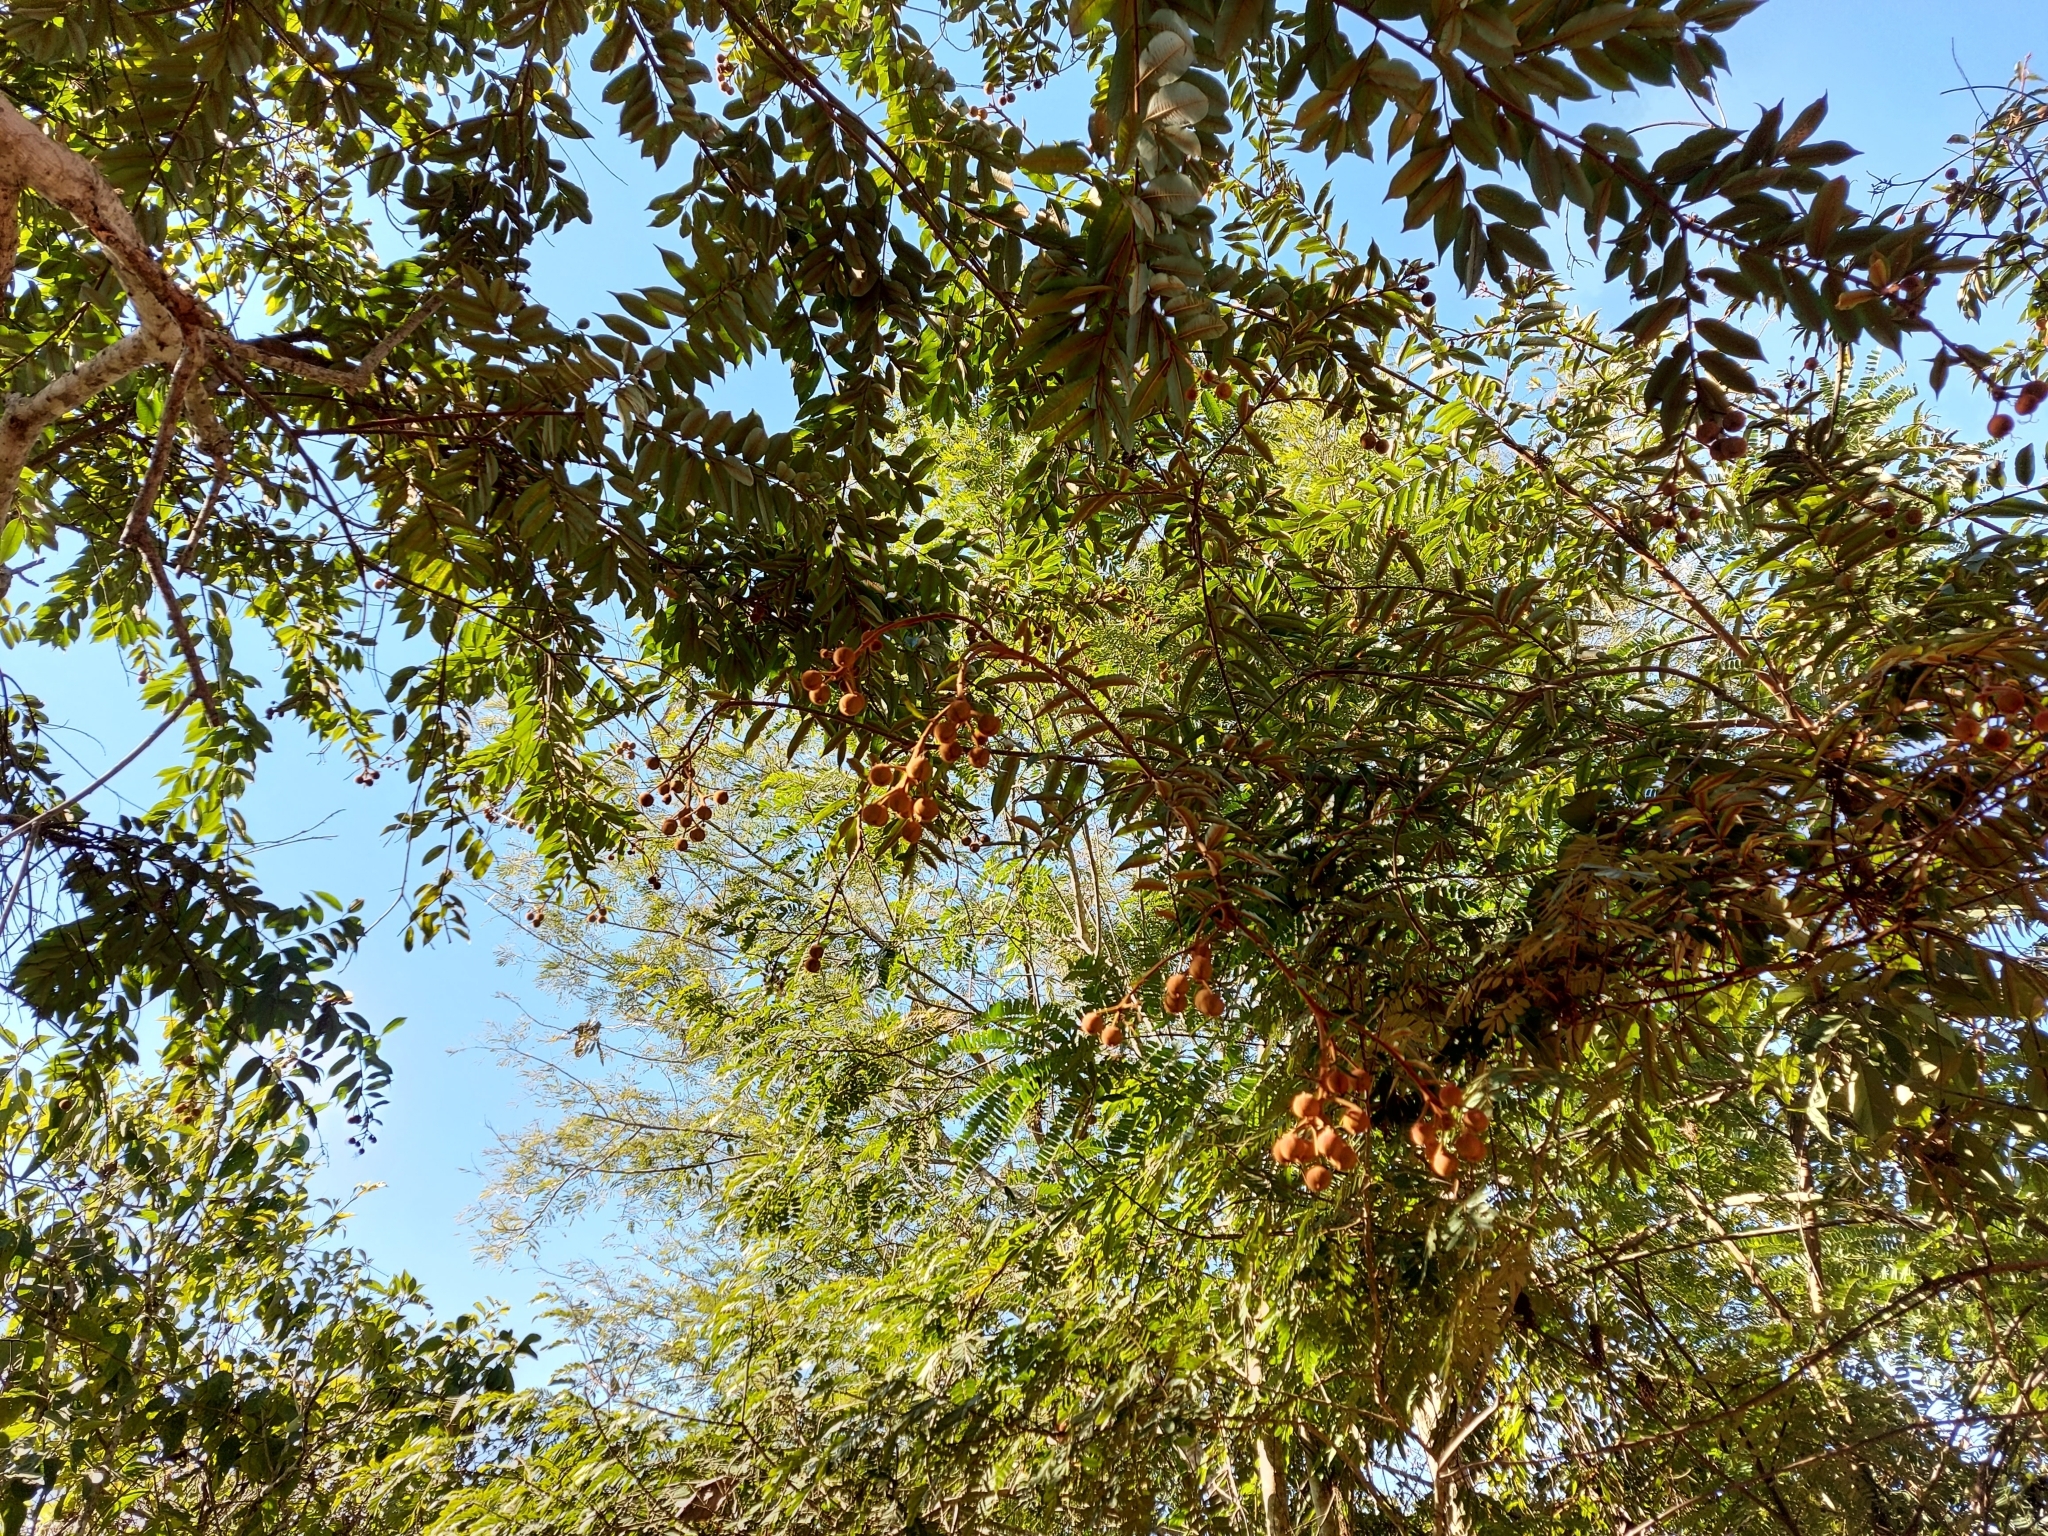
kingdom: Plantae
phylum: Tracheophyta
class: Magnoliopsida
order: Malpighiales
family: Euphorbiaceae
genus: Mabea
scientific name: Mabea fistulifera
